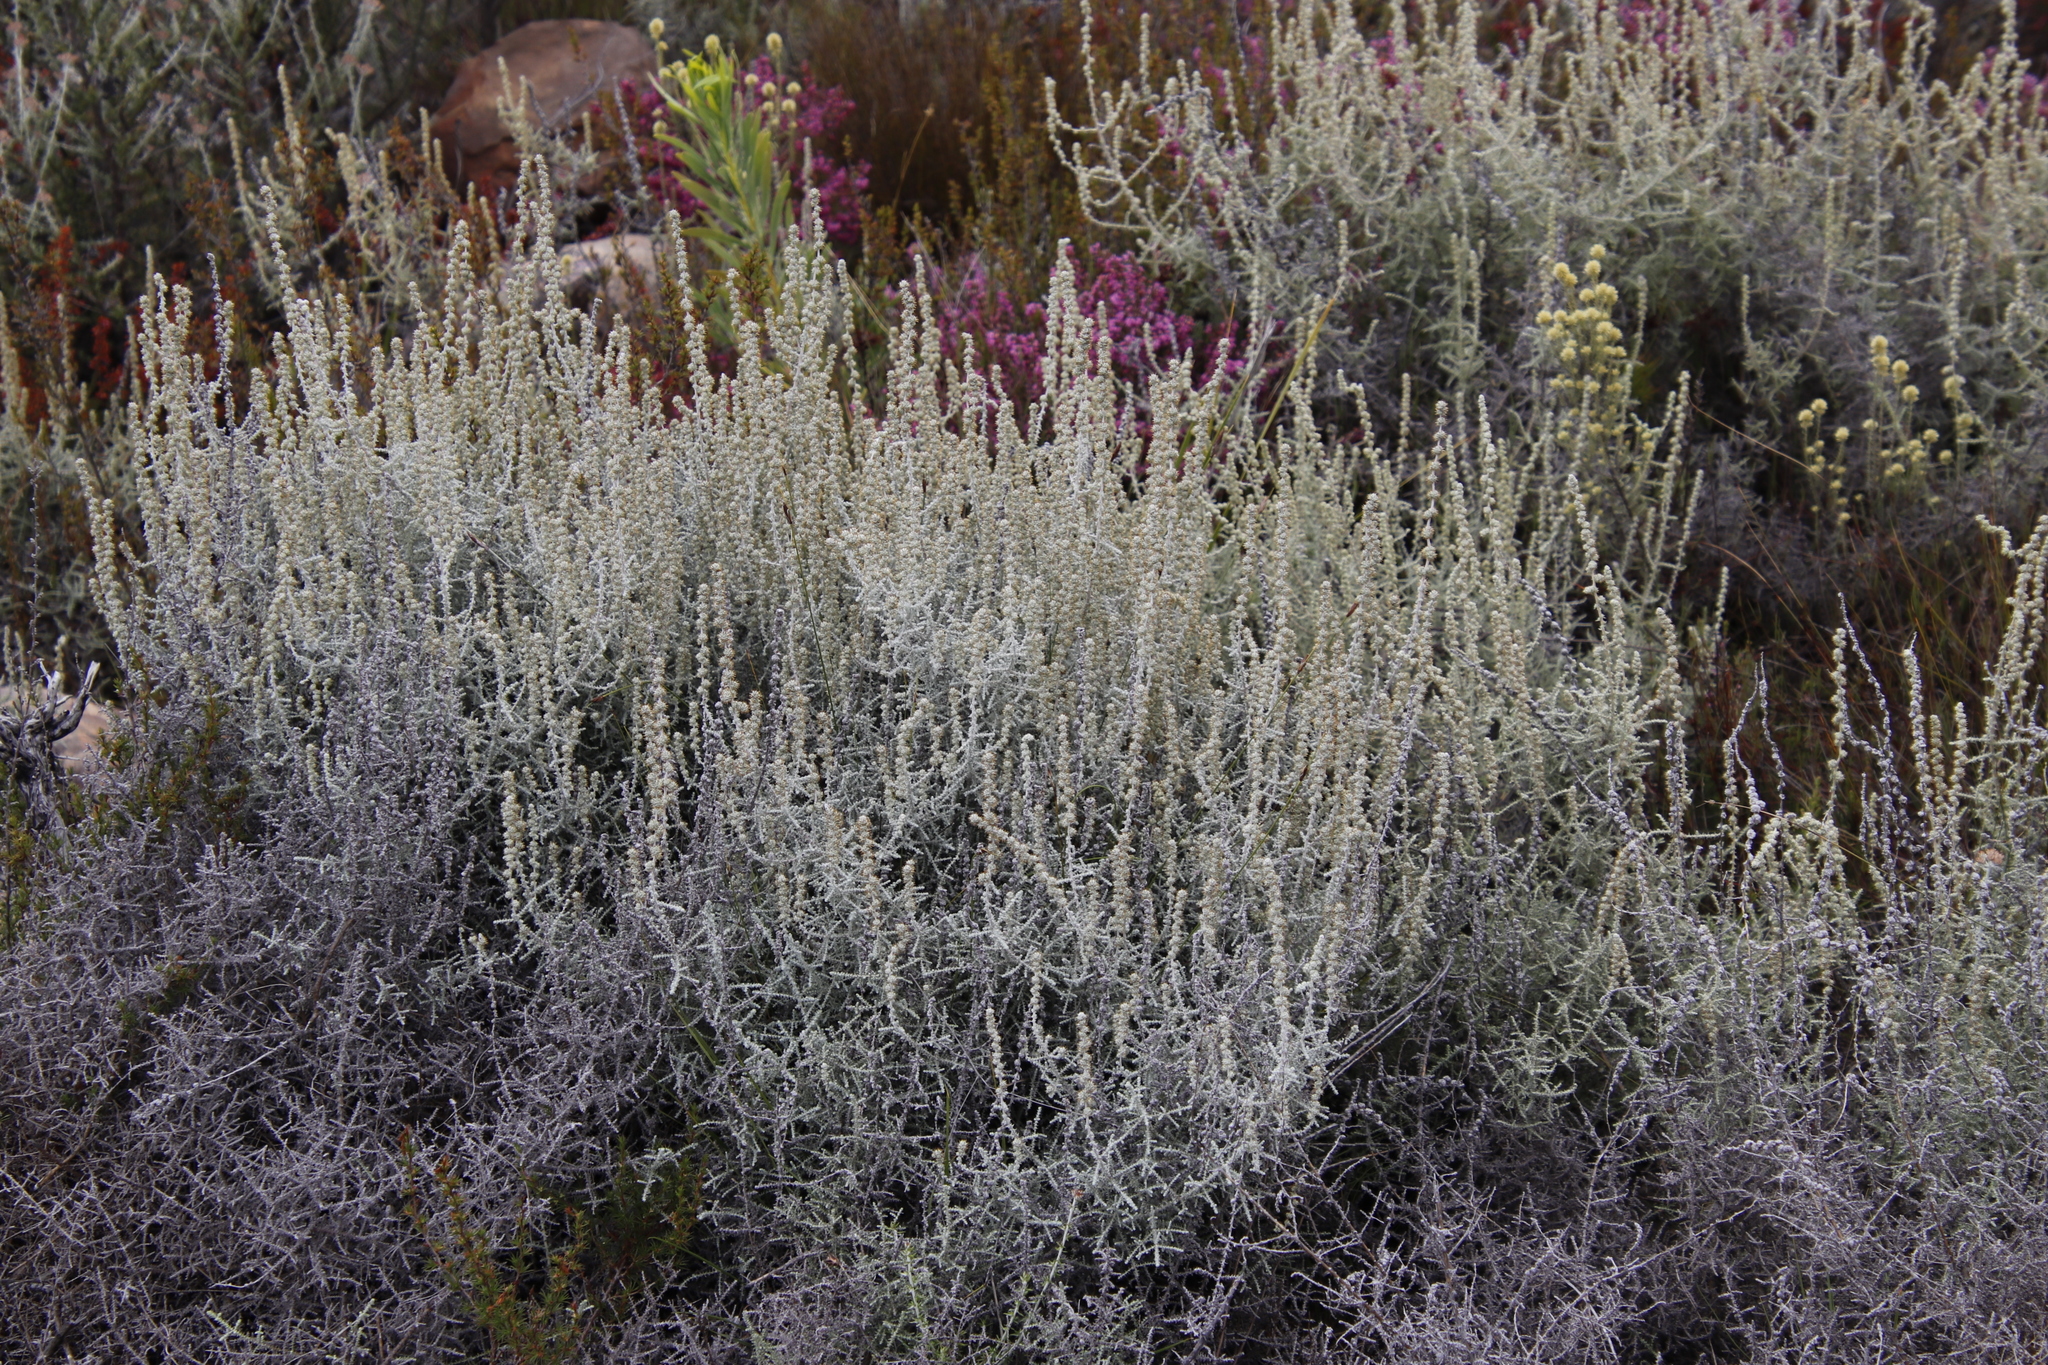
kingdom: Plantae
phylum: Tracheophyta
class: Magnoliopsida
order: Asterales
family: Asteraceae
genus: Seriphium
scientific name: Seriphium plumosum
